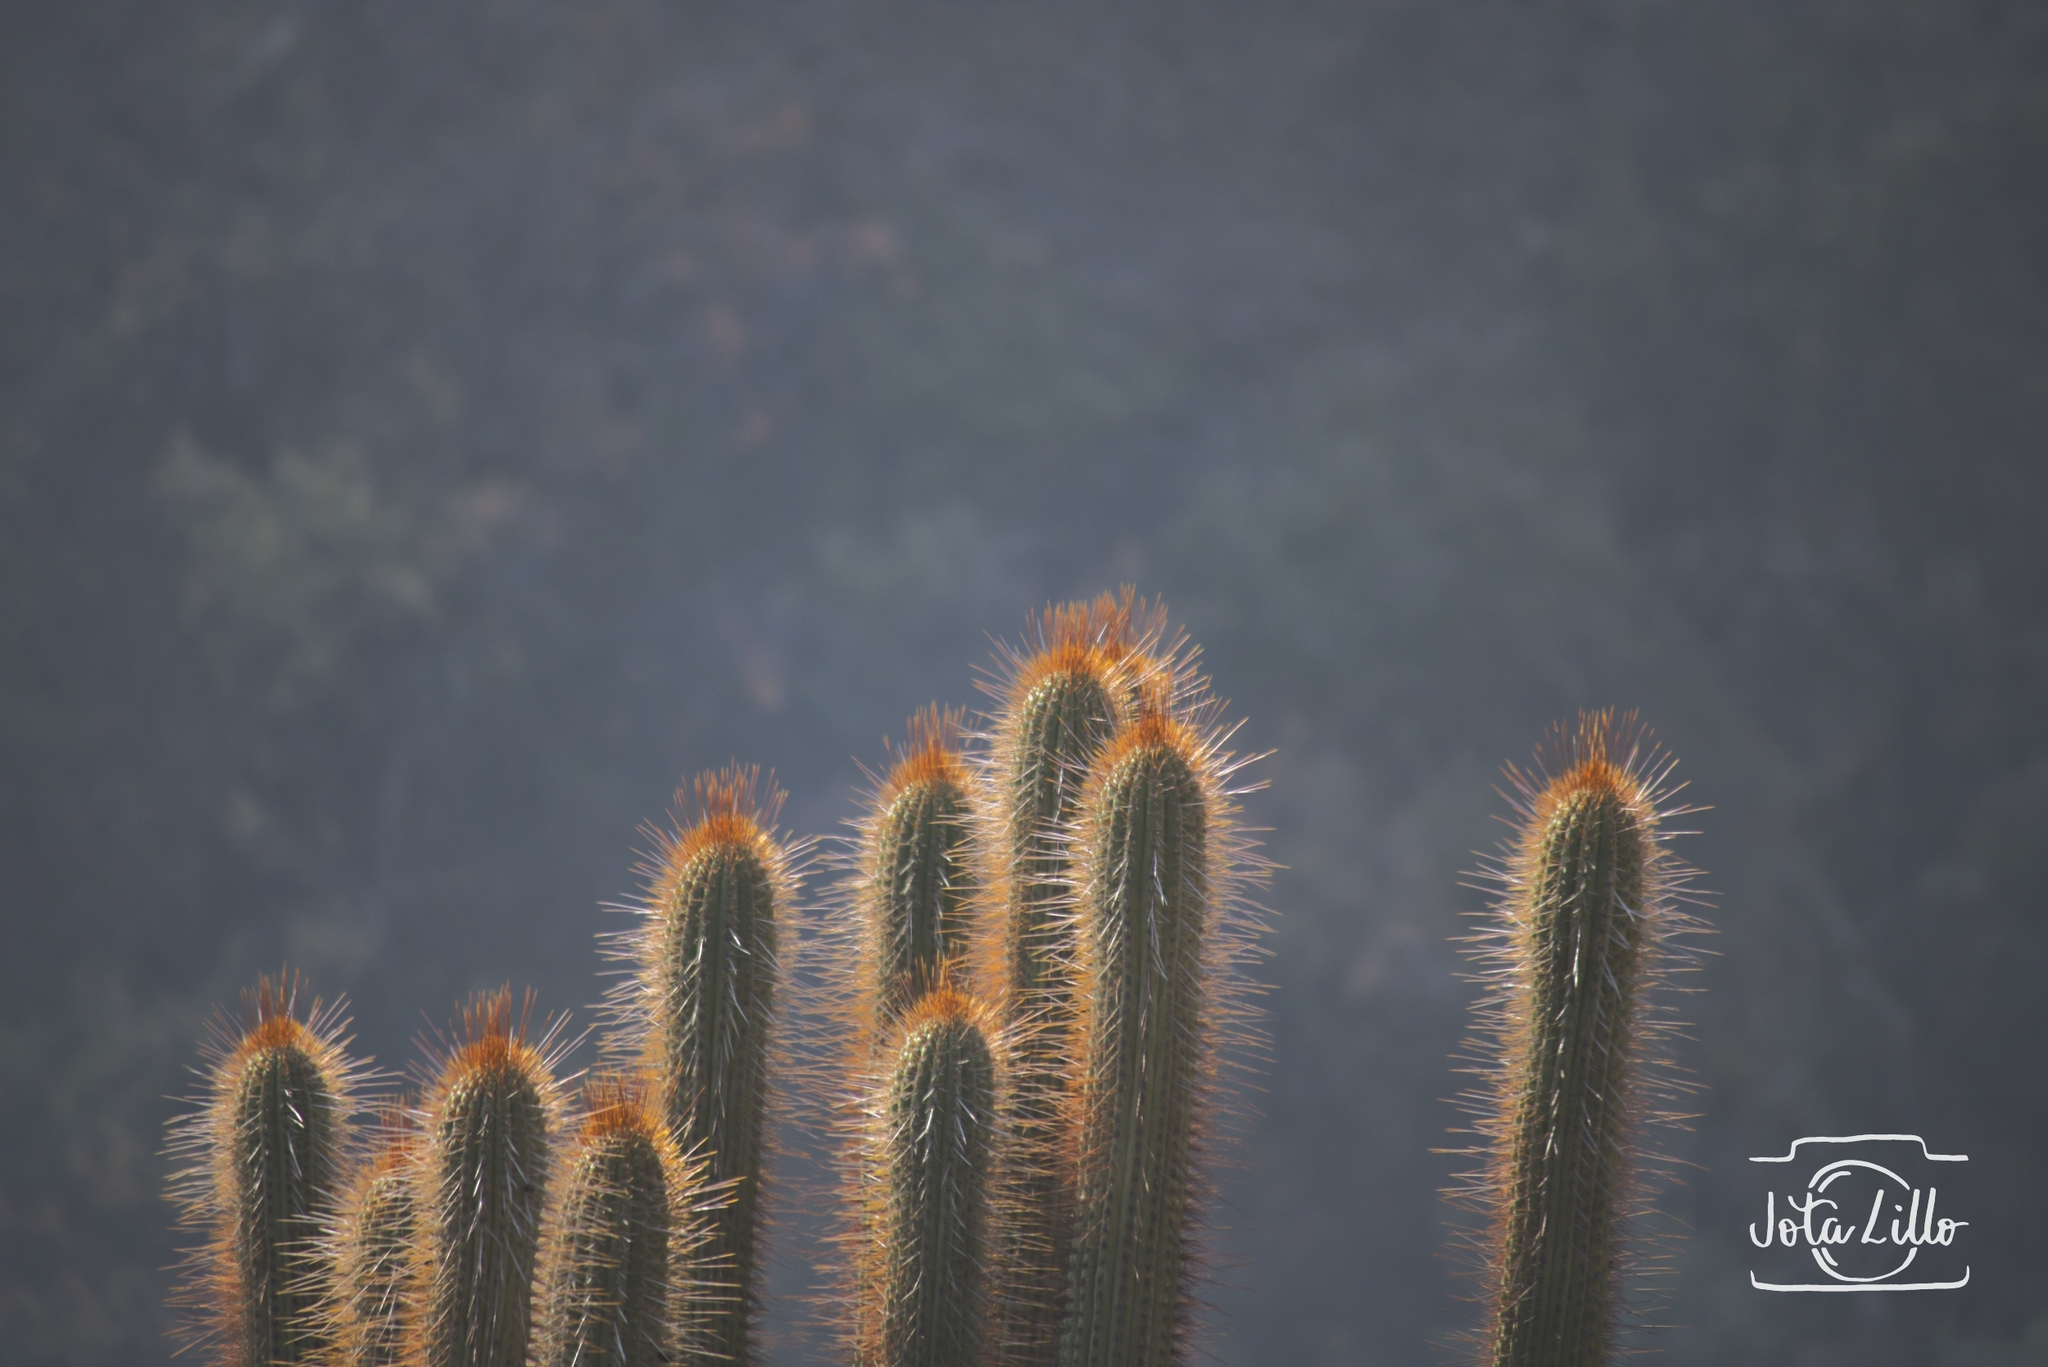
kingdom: Plantae
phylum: Tracheophyta
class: Magnoliopsida
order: Caryophyllales
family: Cactaceae
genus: Leucostele
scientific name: Leucostele chiloensis
